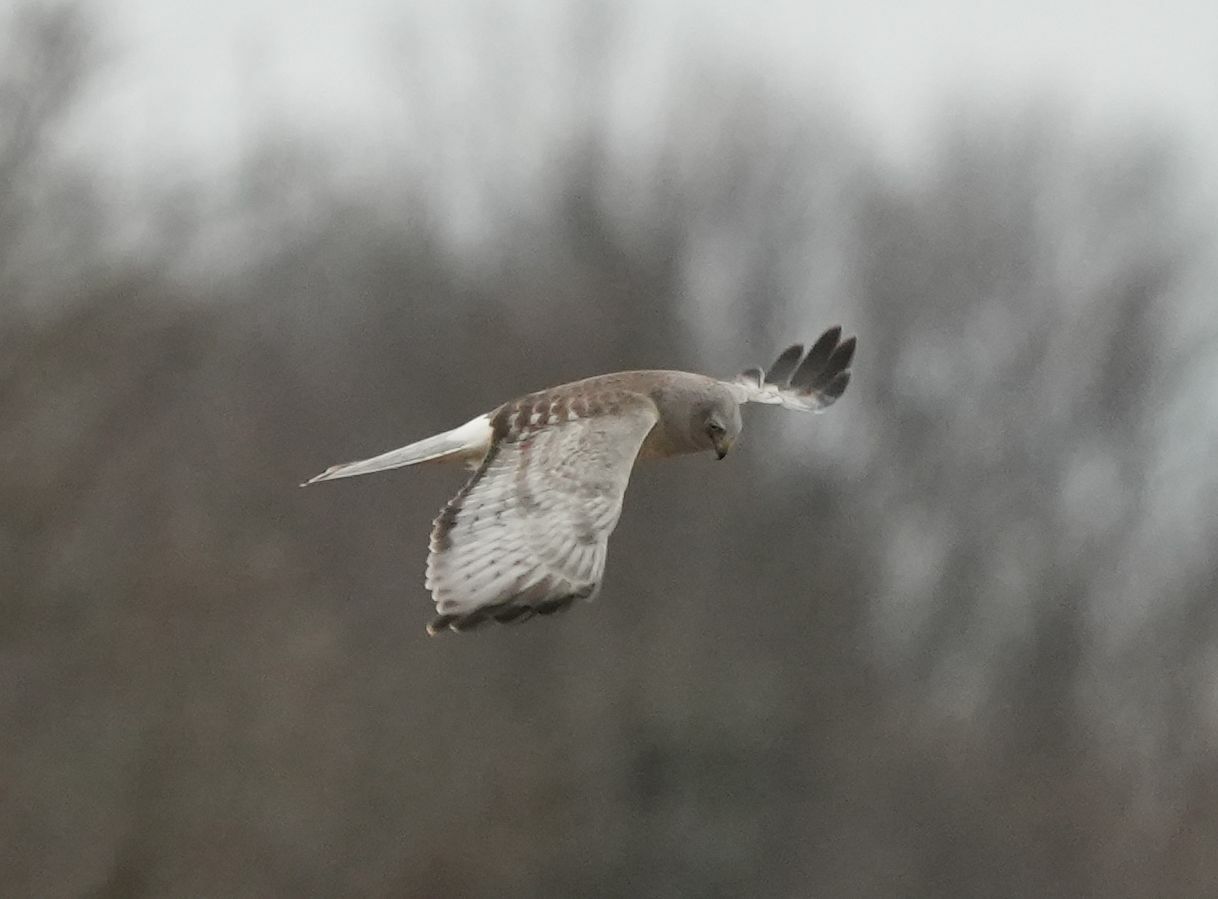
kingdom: Animalia
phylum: Chordata
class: Aves
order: Accipitriformes
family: Accipitridae
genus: Circus
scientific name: Circus cyaneus
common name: Hen harrier
